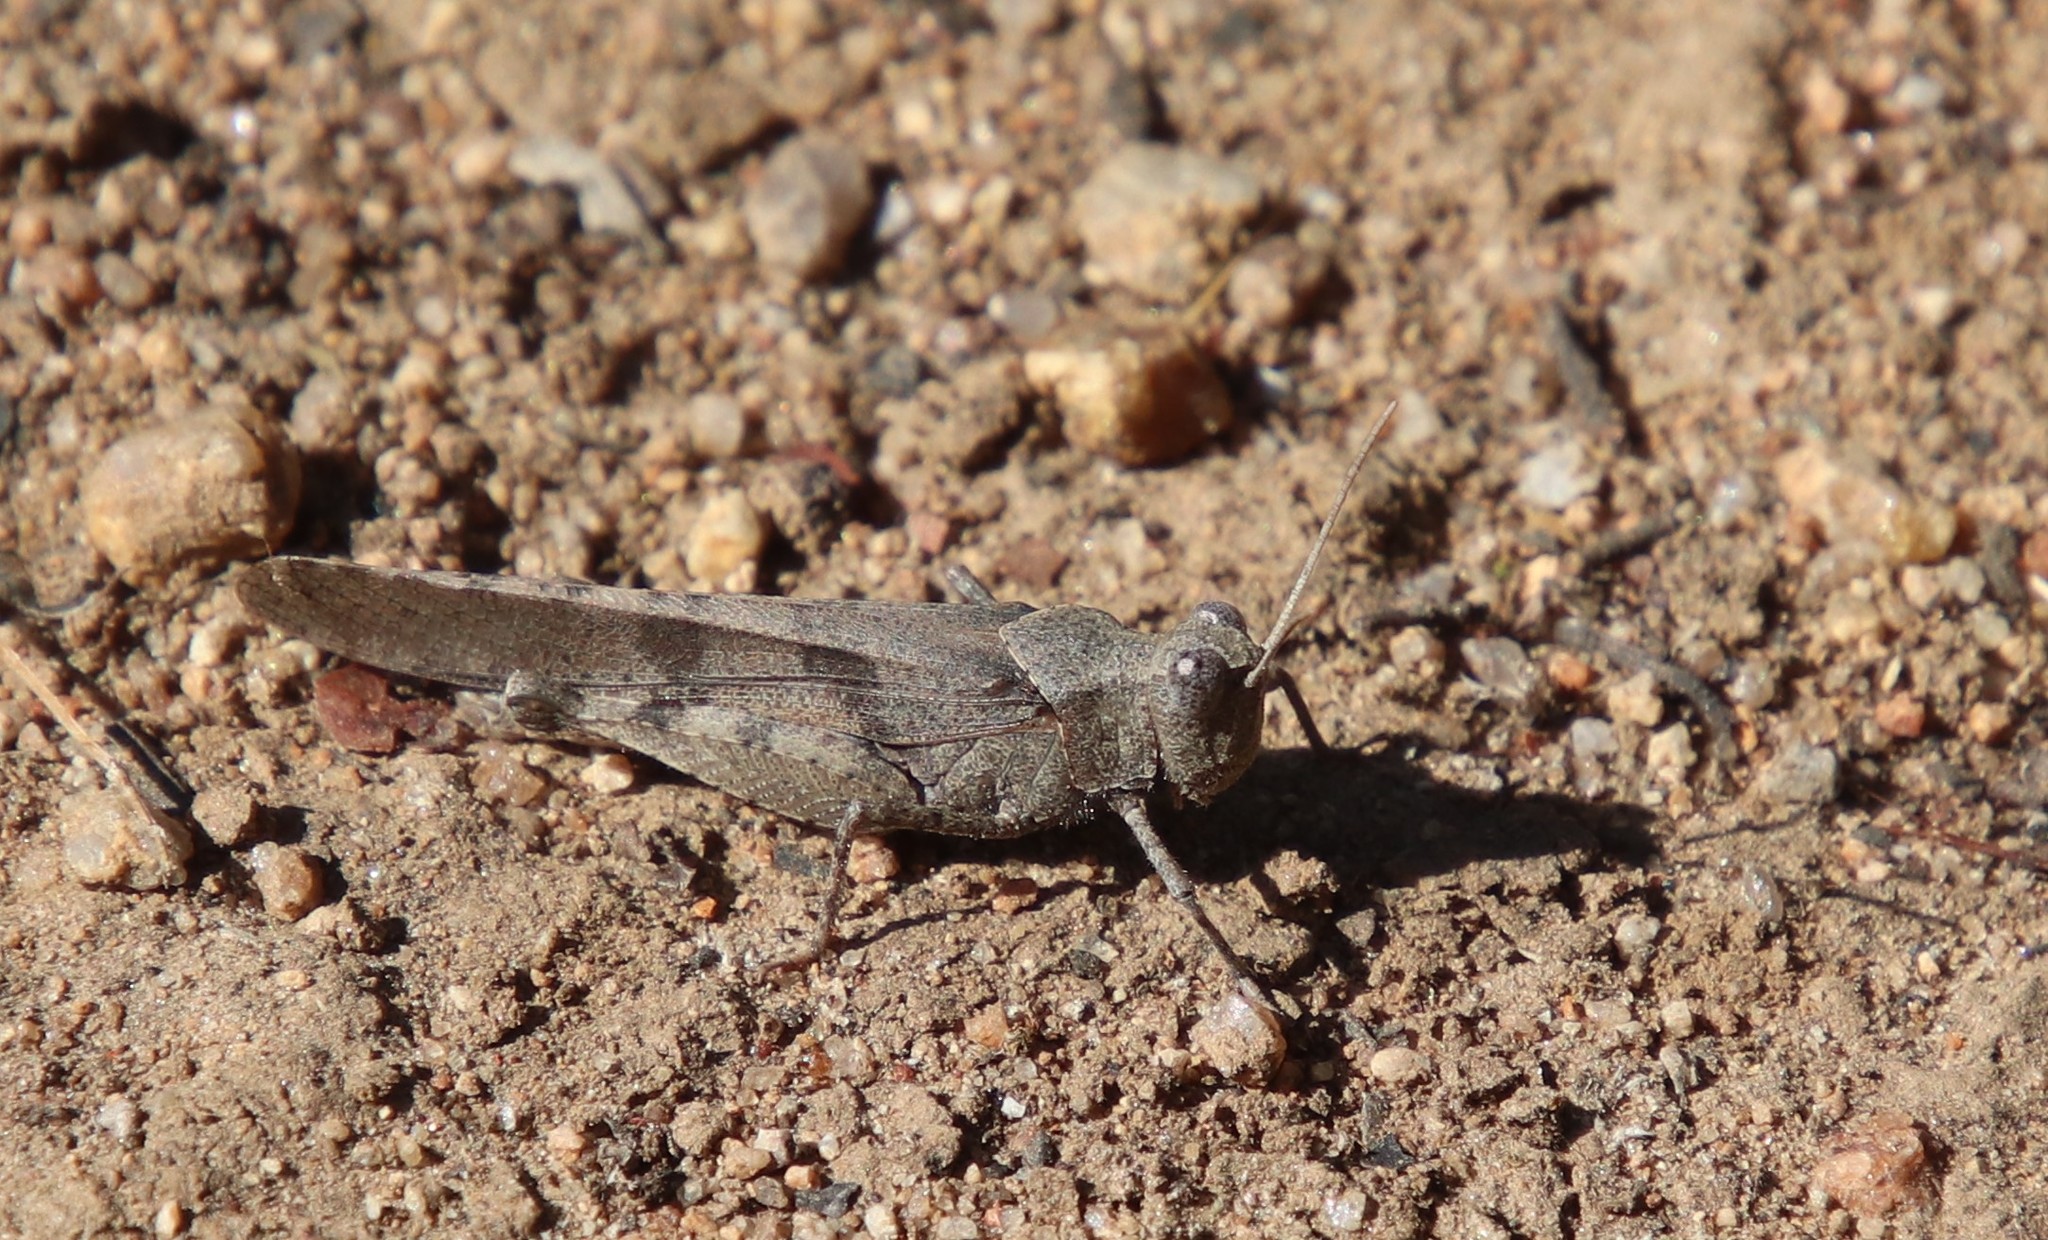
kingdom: Animalia
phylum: Arthropoda
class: Insecta
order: Orthoptera
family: Acrididae
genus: Trimerotropis
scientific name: Trimerotropis thalassica
